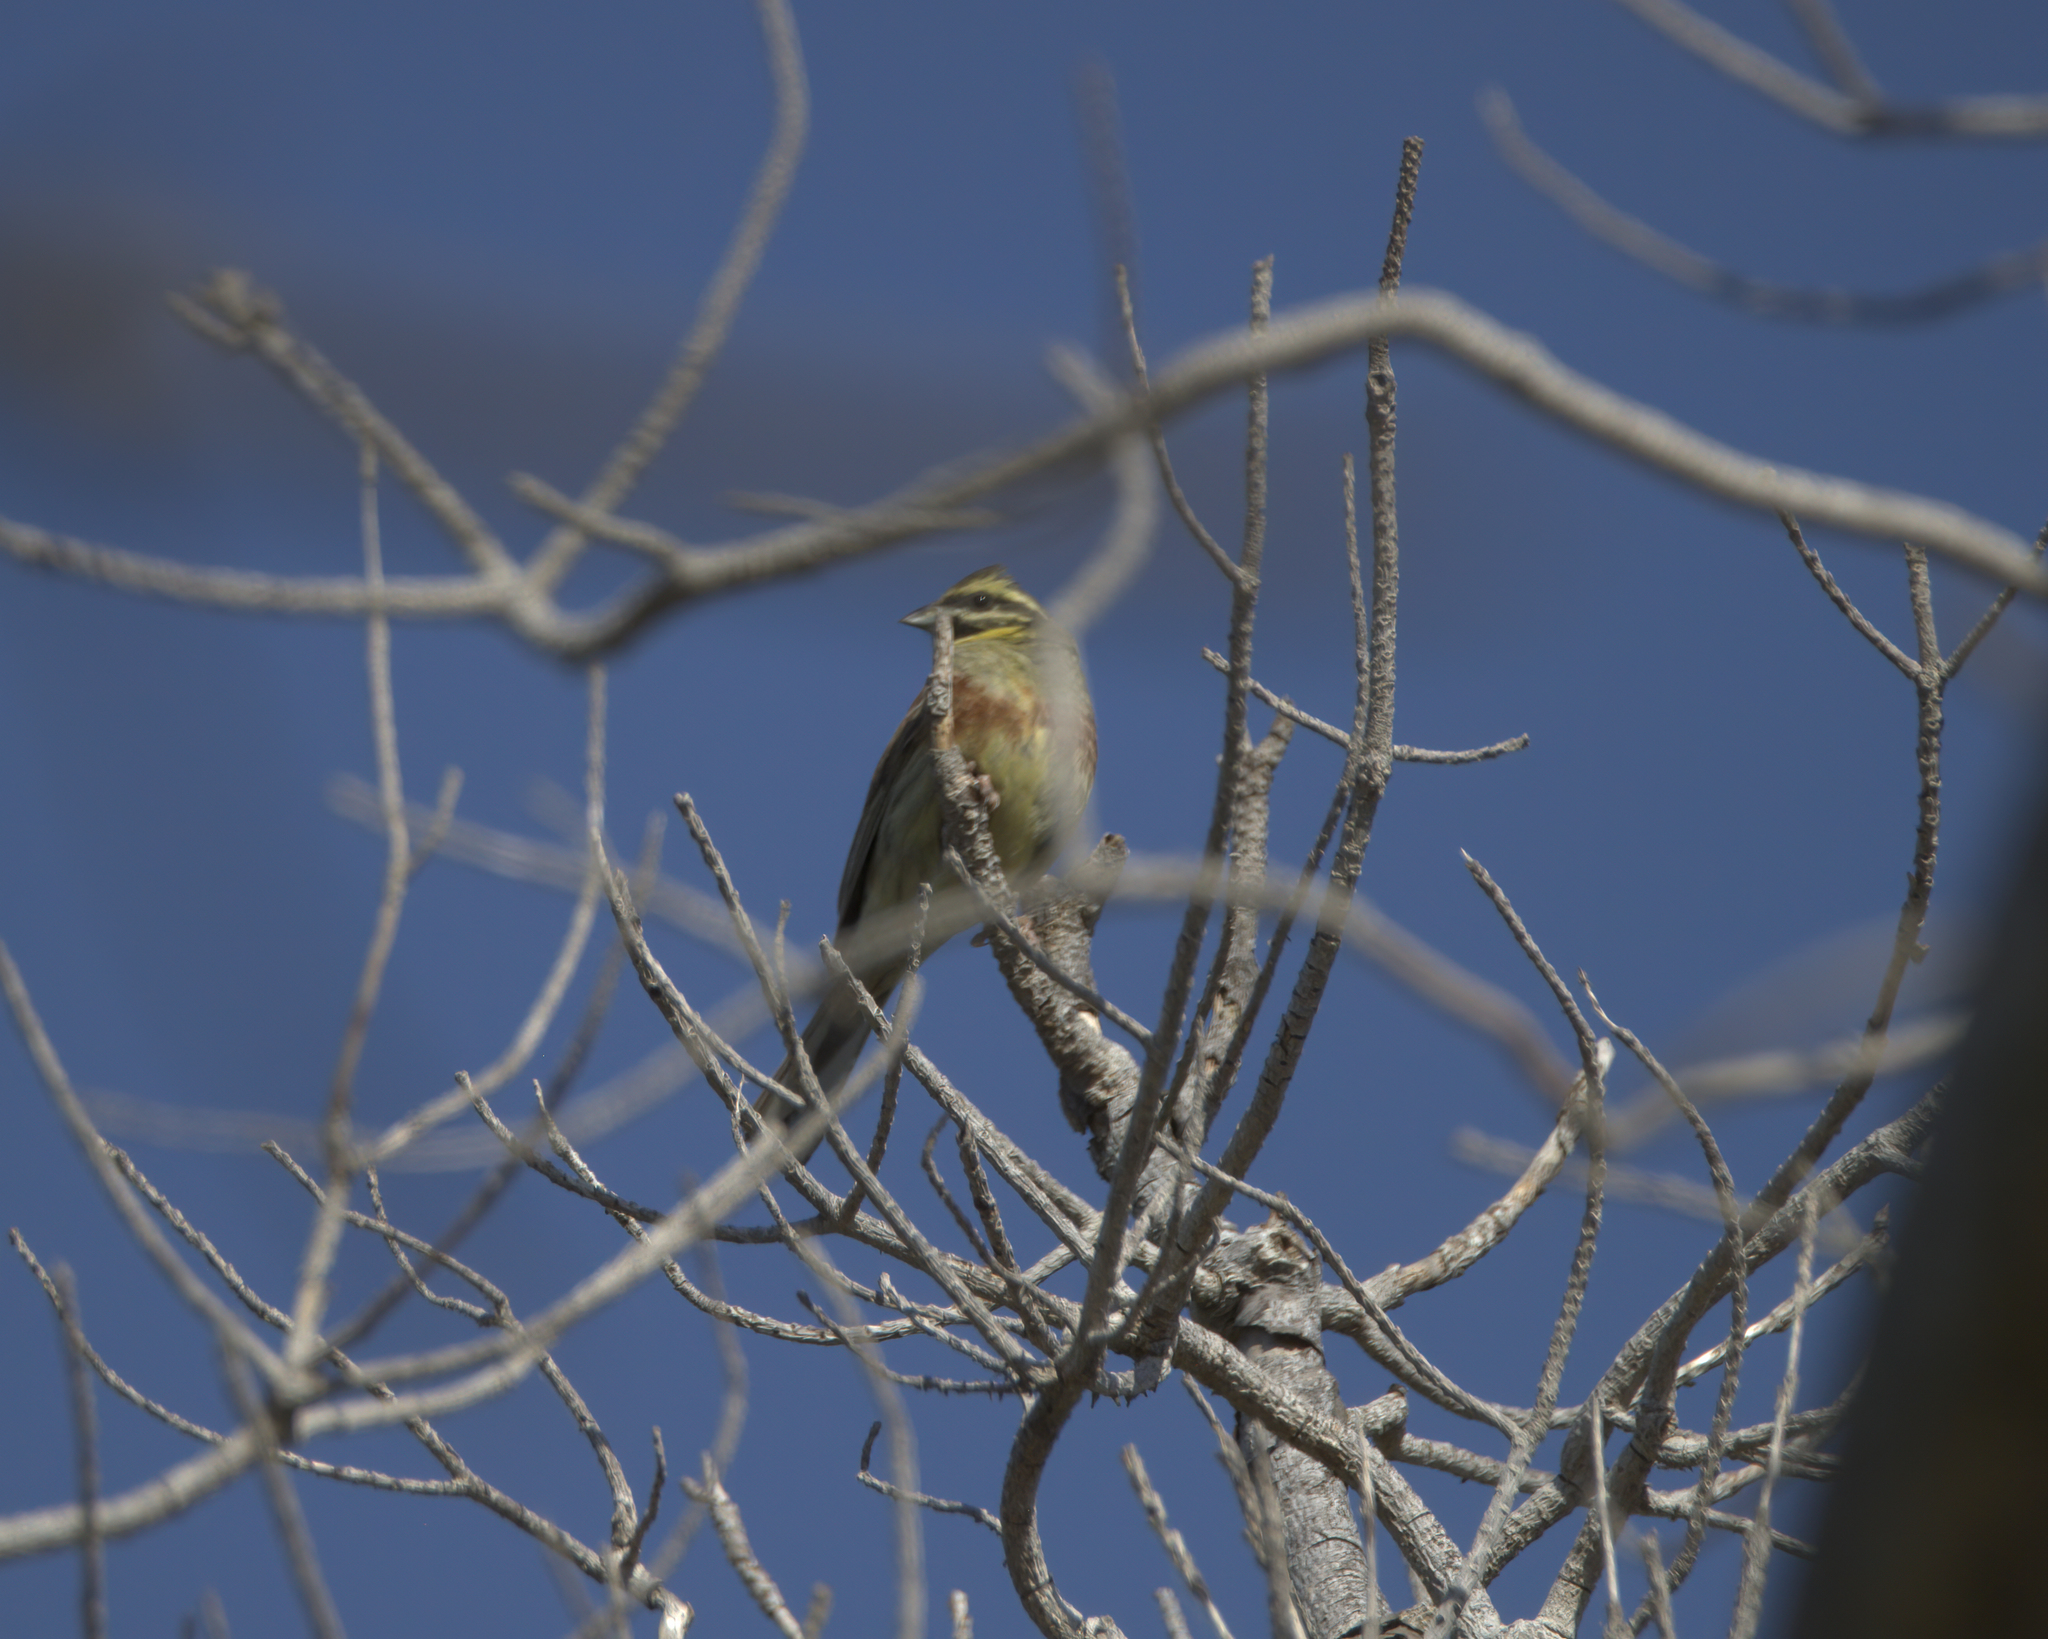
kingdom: Animalia
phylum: Chordata
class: Aves
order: Passeriformes
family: Emberizidae
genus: Emberiza
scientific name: Emberiza cirlus
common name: Cirl bunting
